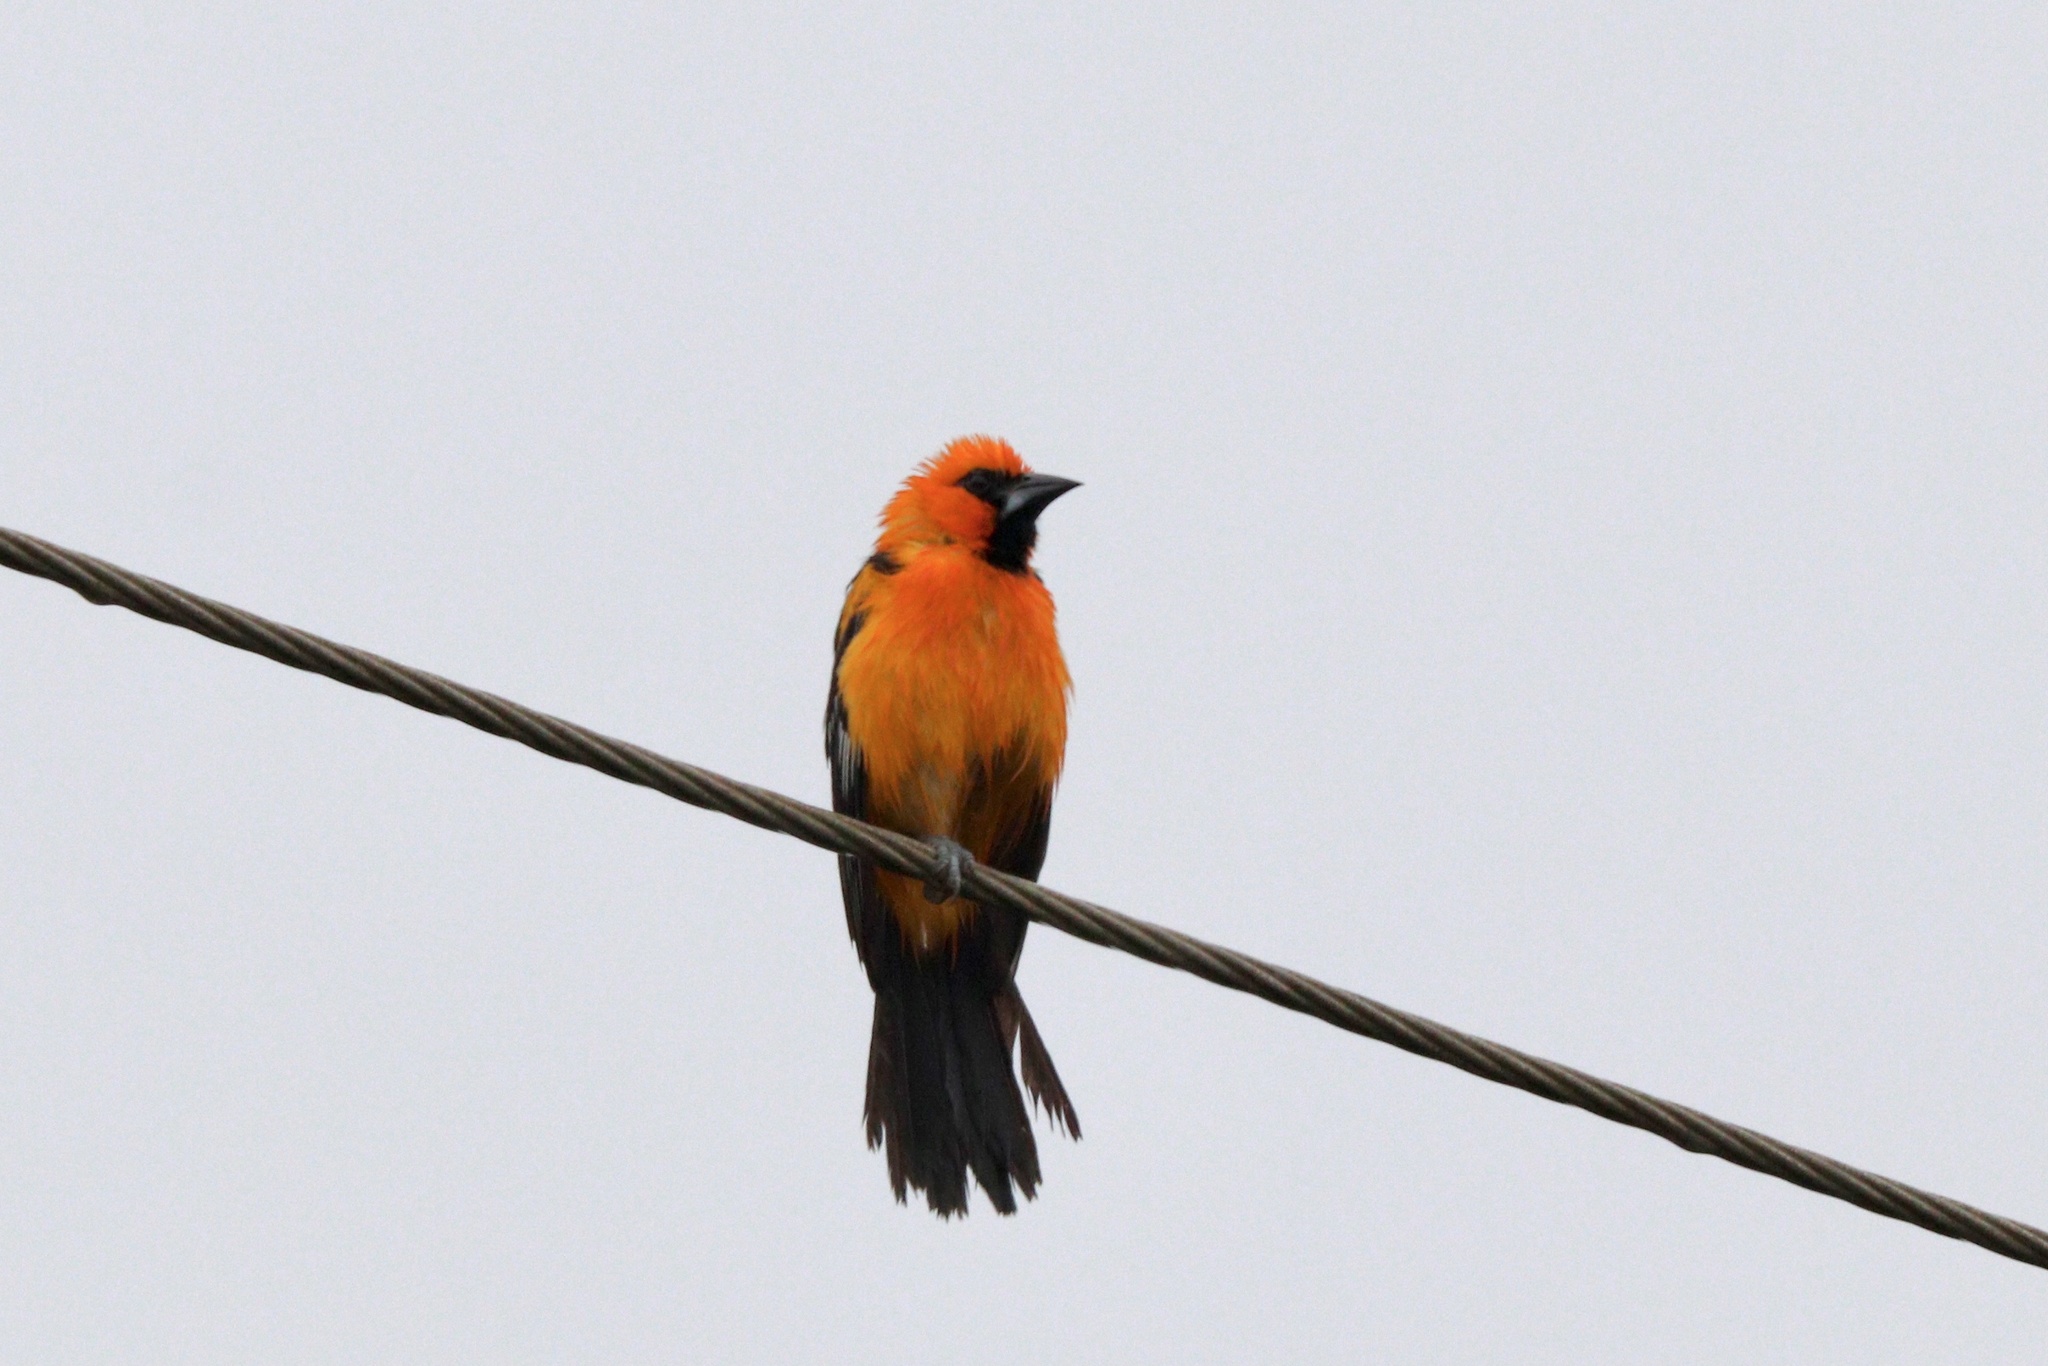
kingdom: Animalia
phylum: Chordata
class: Aves
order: Passeriformes
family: Icteridae
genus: Icterus
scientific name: Icterus gularis
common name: Altamira oriole
